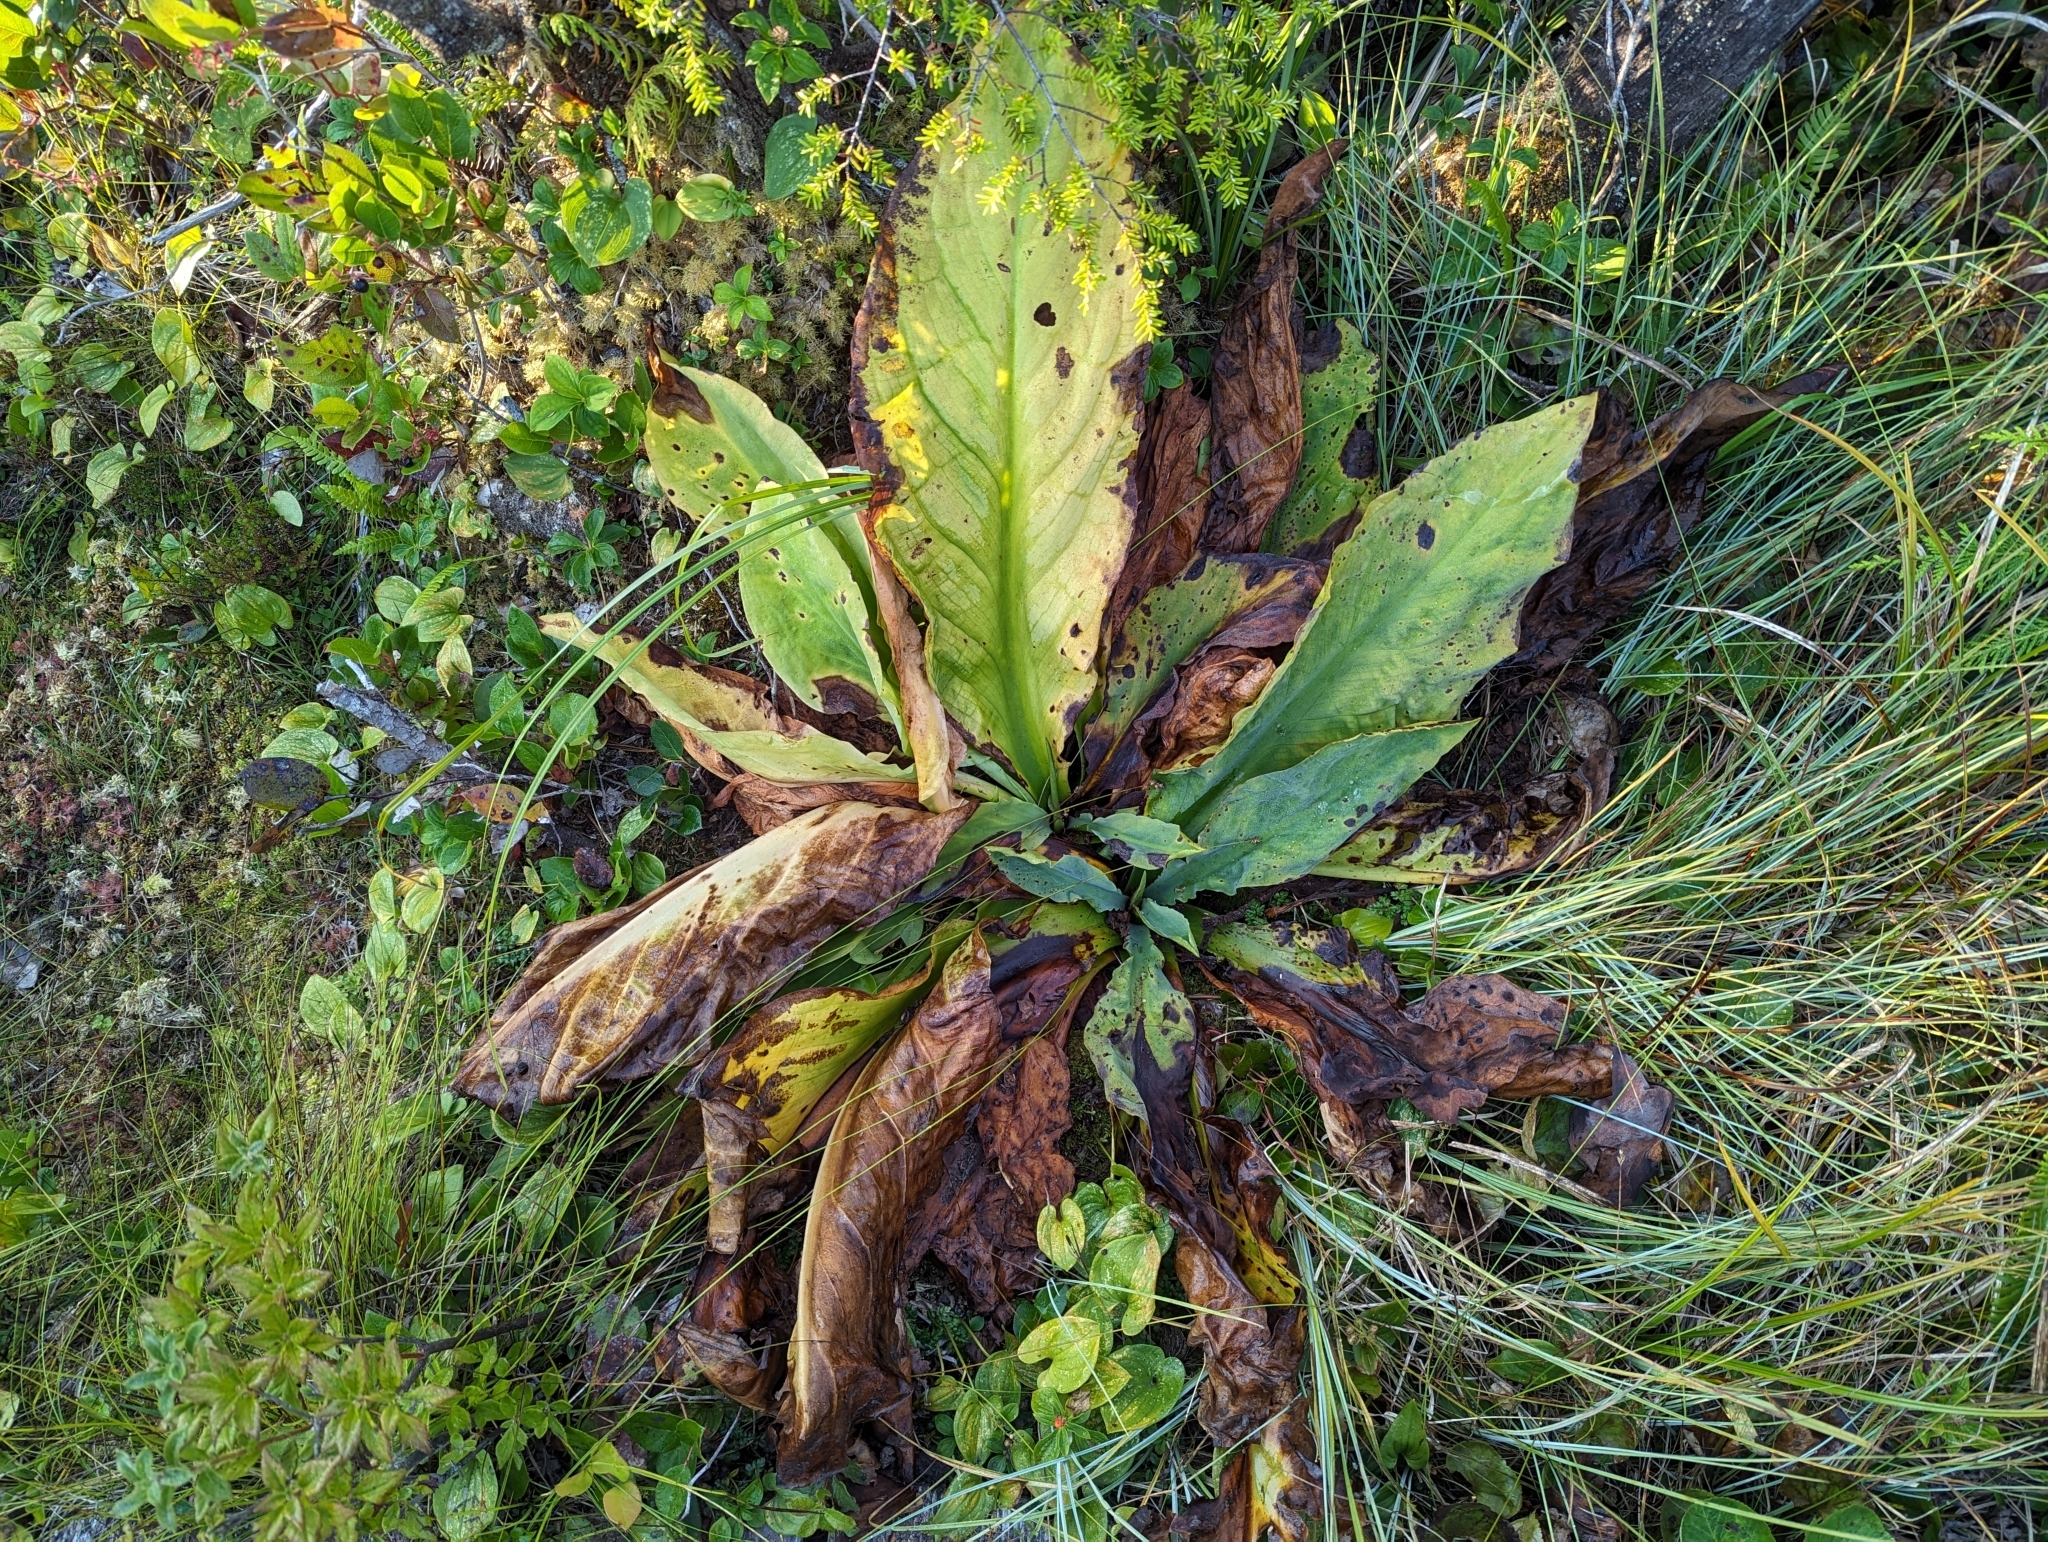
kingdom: Plantae
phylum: Tracheophyta
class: Liliopsida
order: Alismatales
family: Araceae
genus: Lysichiton
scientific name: Lysichiton americanus
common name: American skunk cabbage
